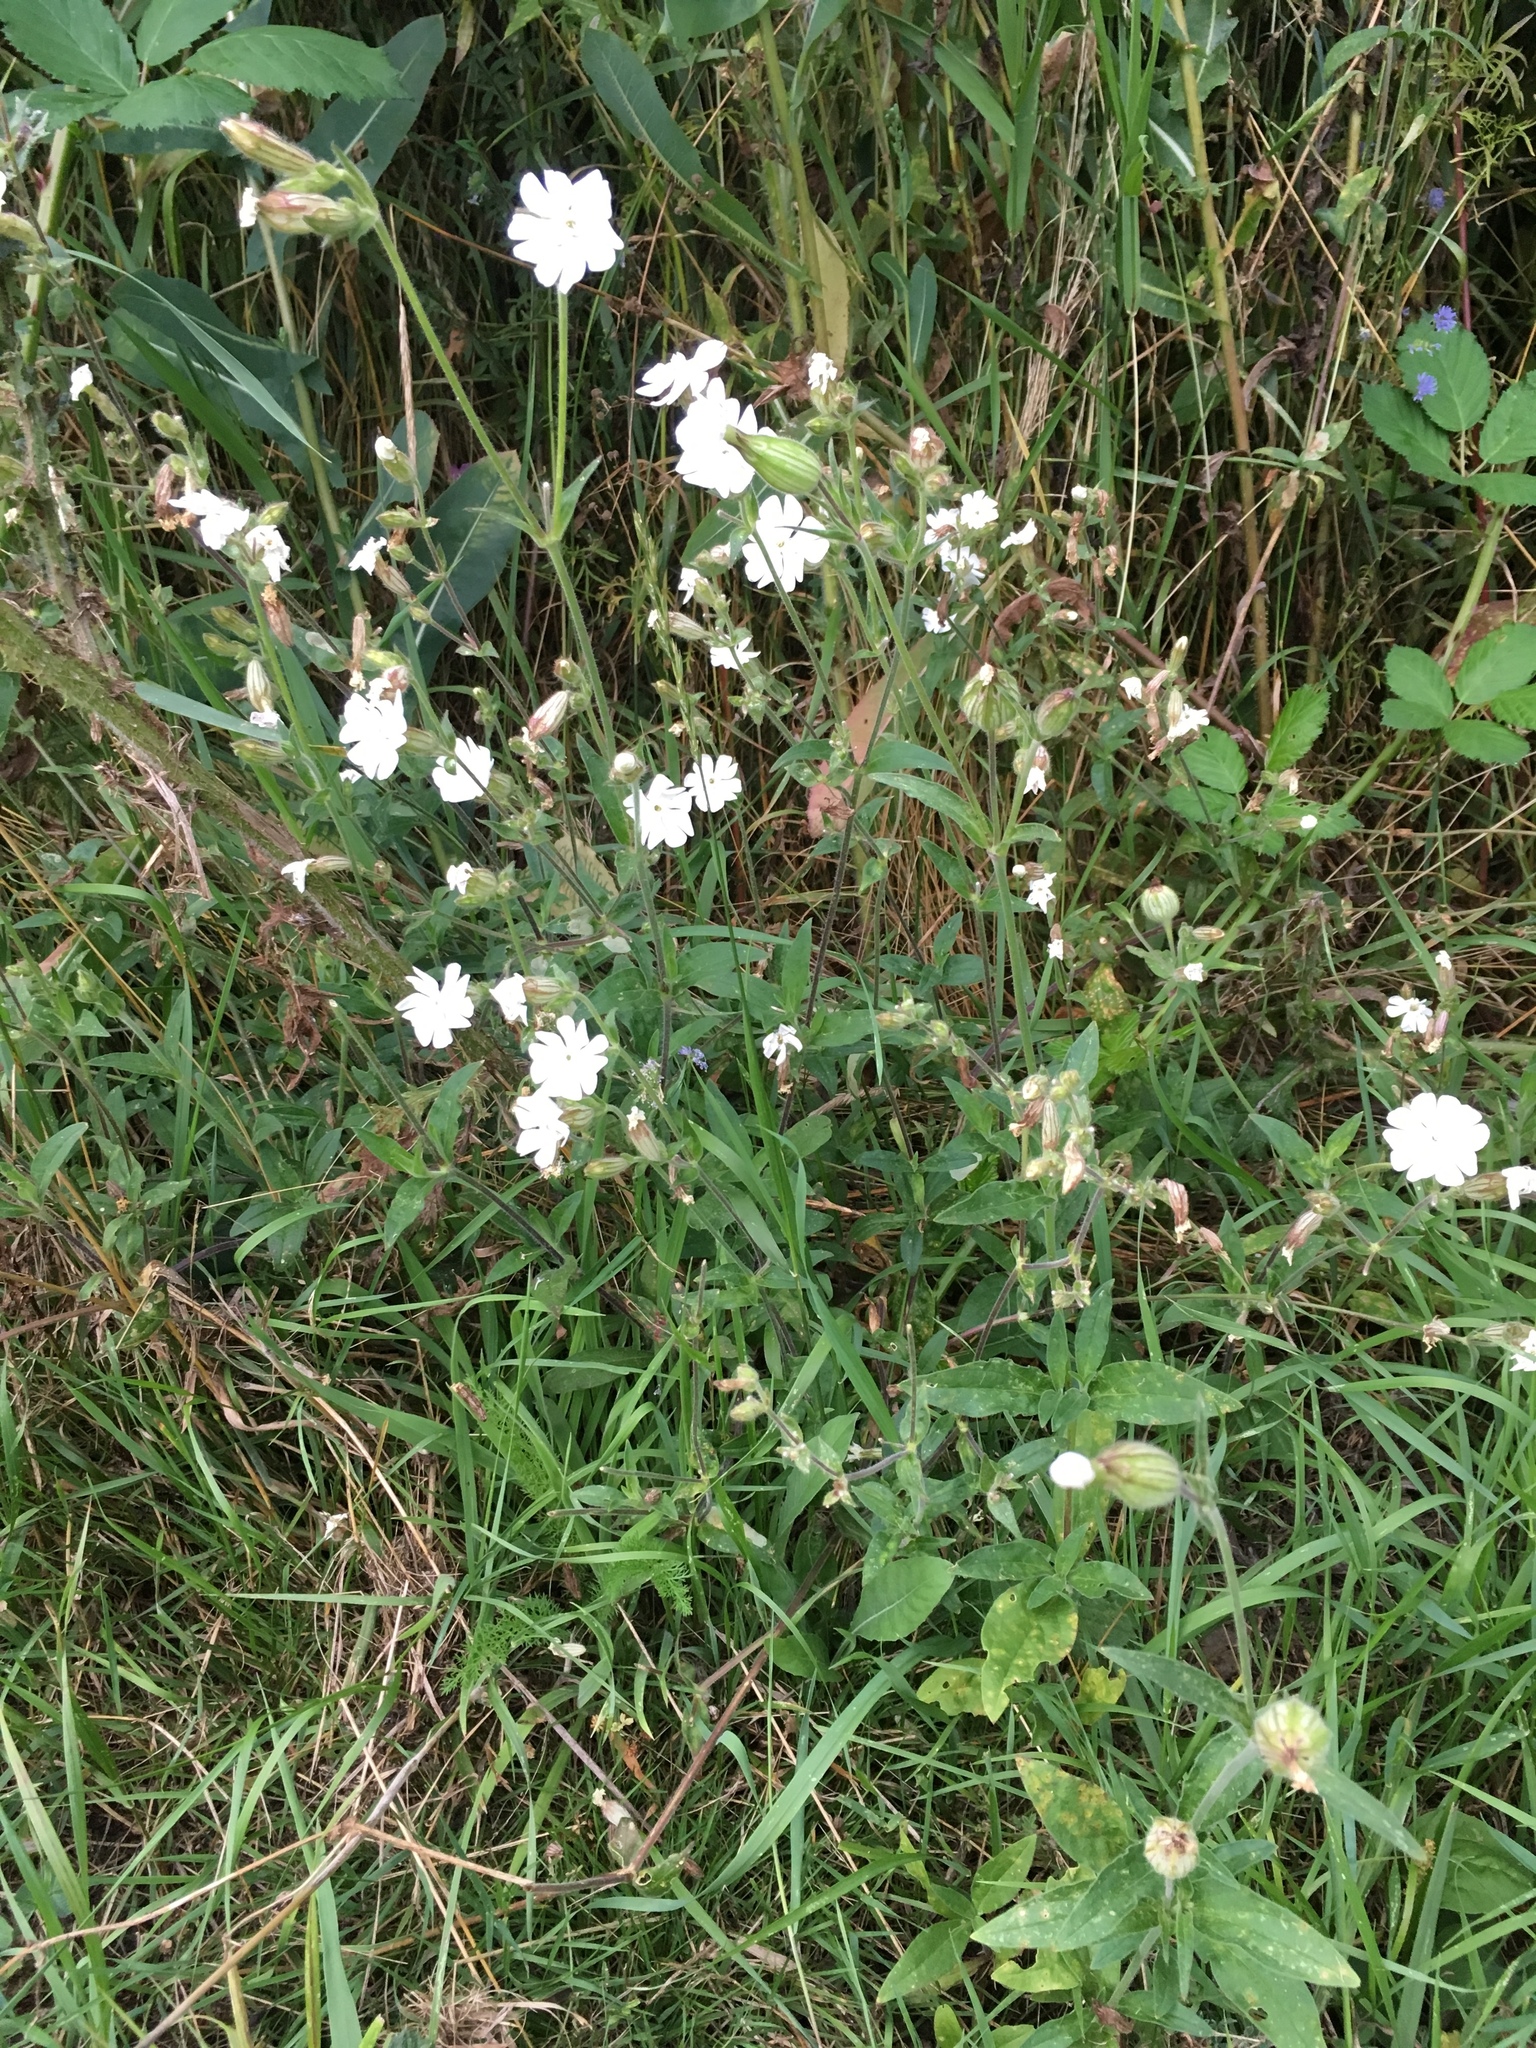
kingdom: Plantae
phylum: Tracheophyta
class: Magnoliopsida
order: Caryophyllales
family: Caryophyllaceae
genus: Silene
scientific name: Silene latifolia
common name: White campion
